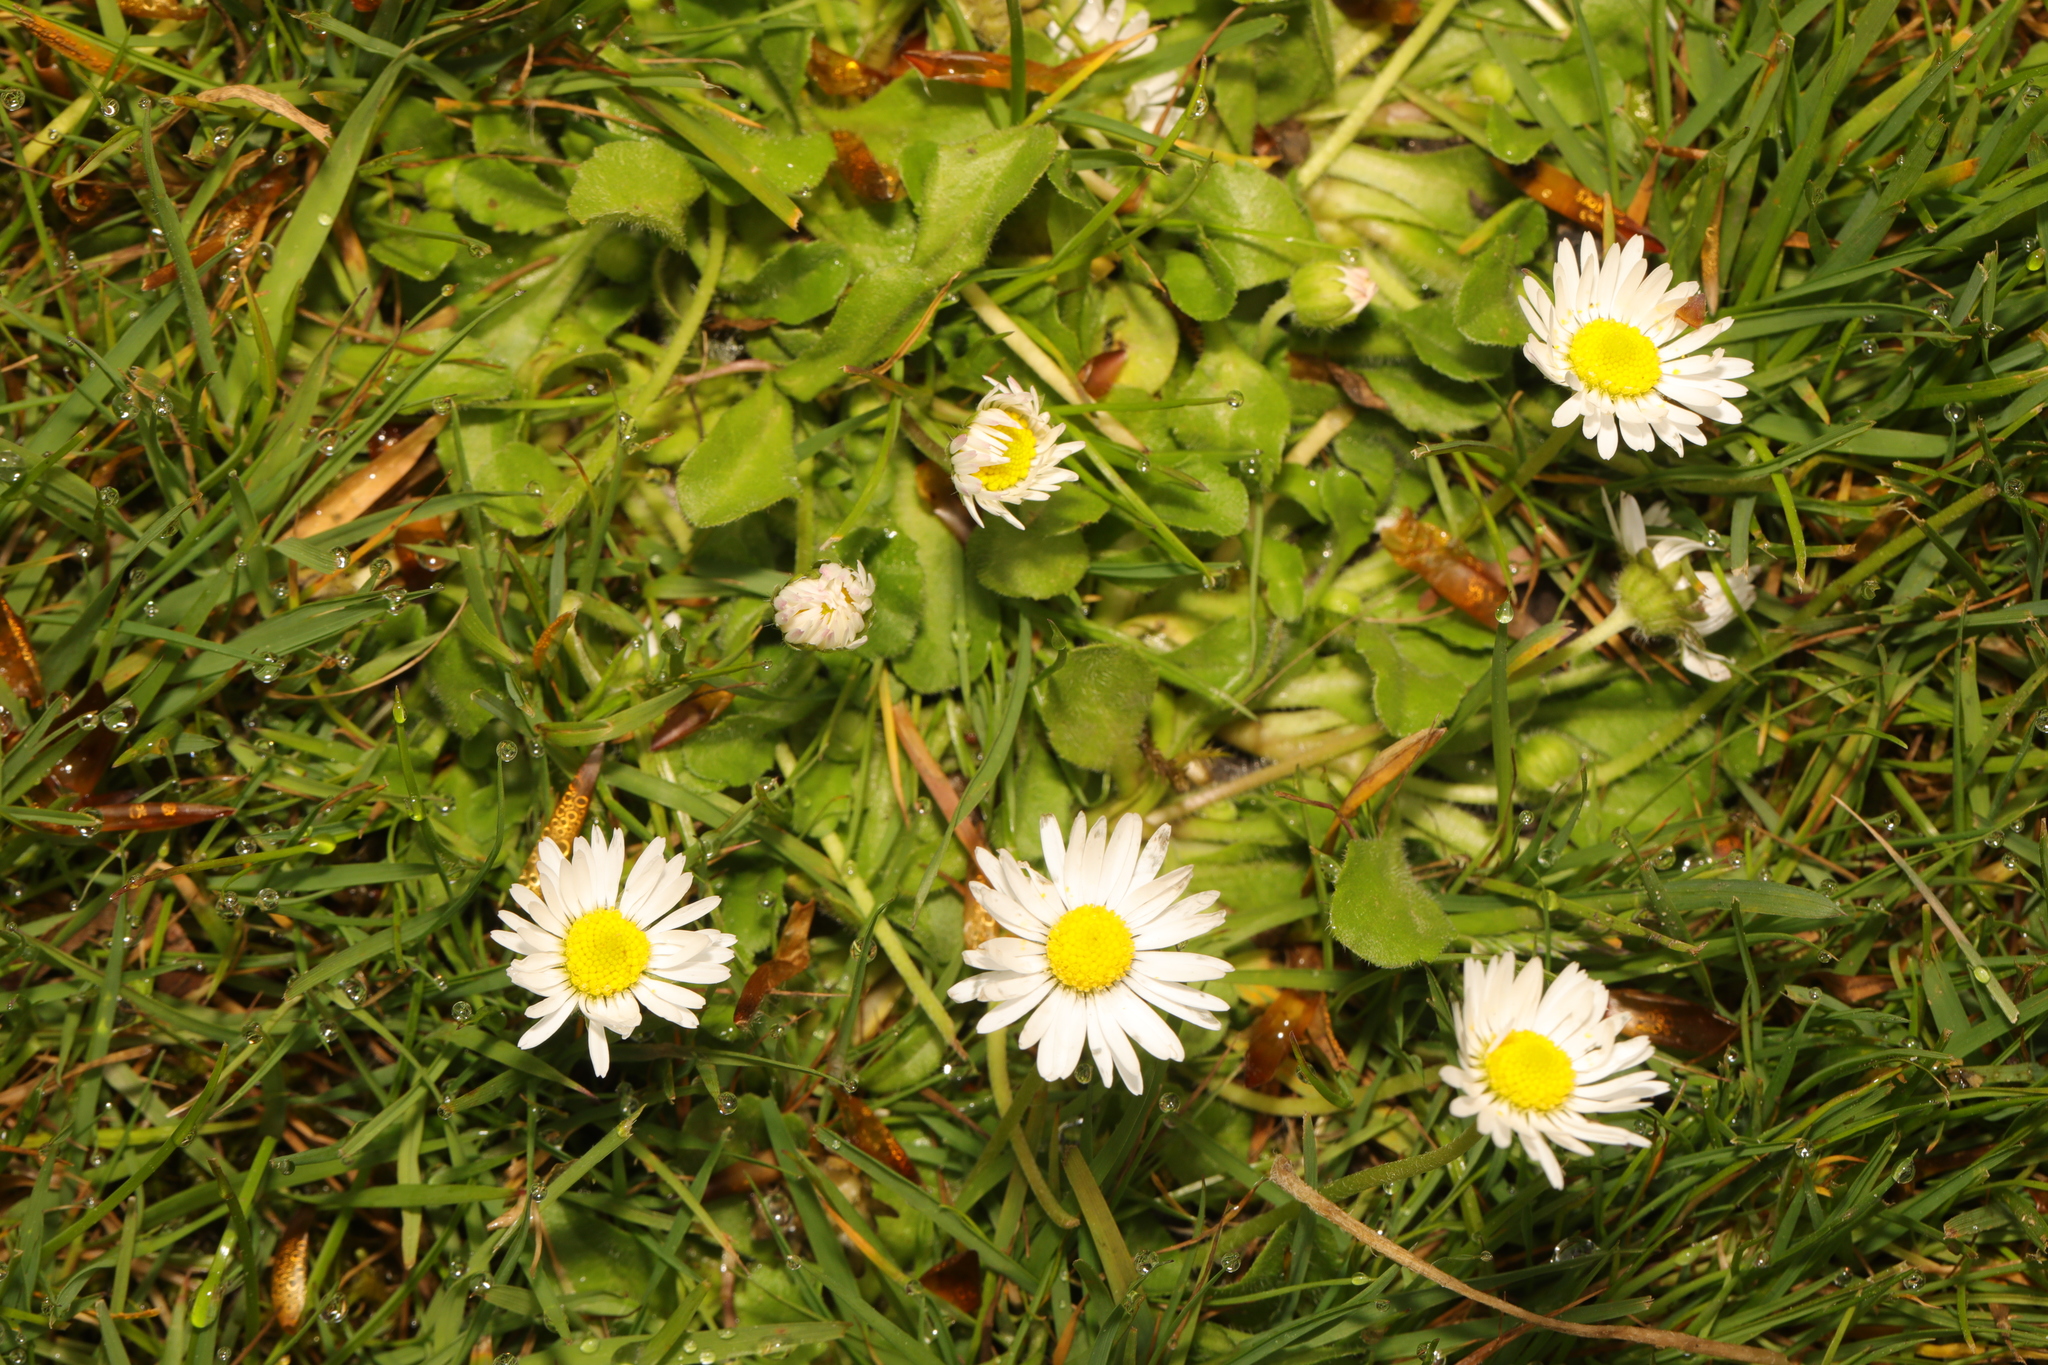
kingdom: Plantae
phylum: Tracheophyta
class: Magnoliopsida
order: Asterales
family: Asteraceae
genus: Bellis
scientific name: Bellis perennis
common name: Lawndaisy
